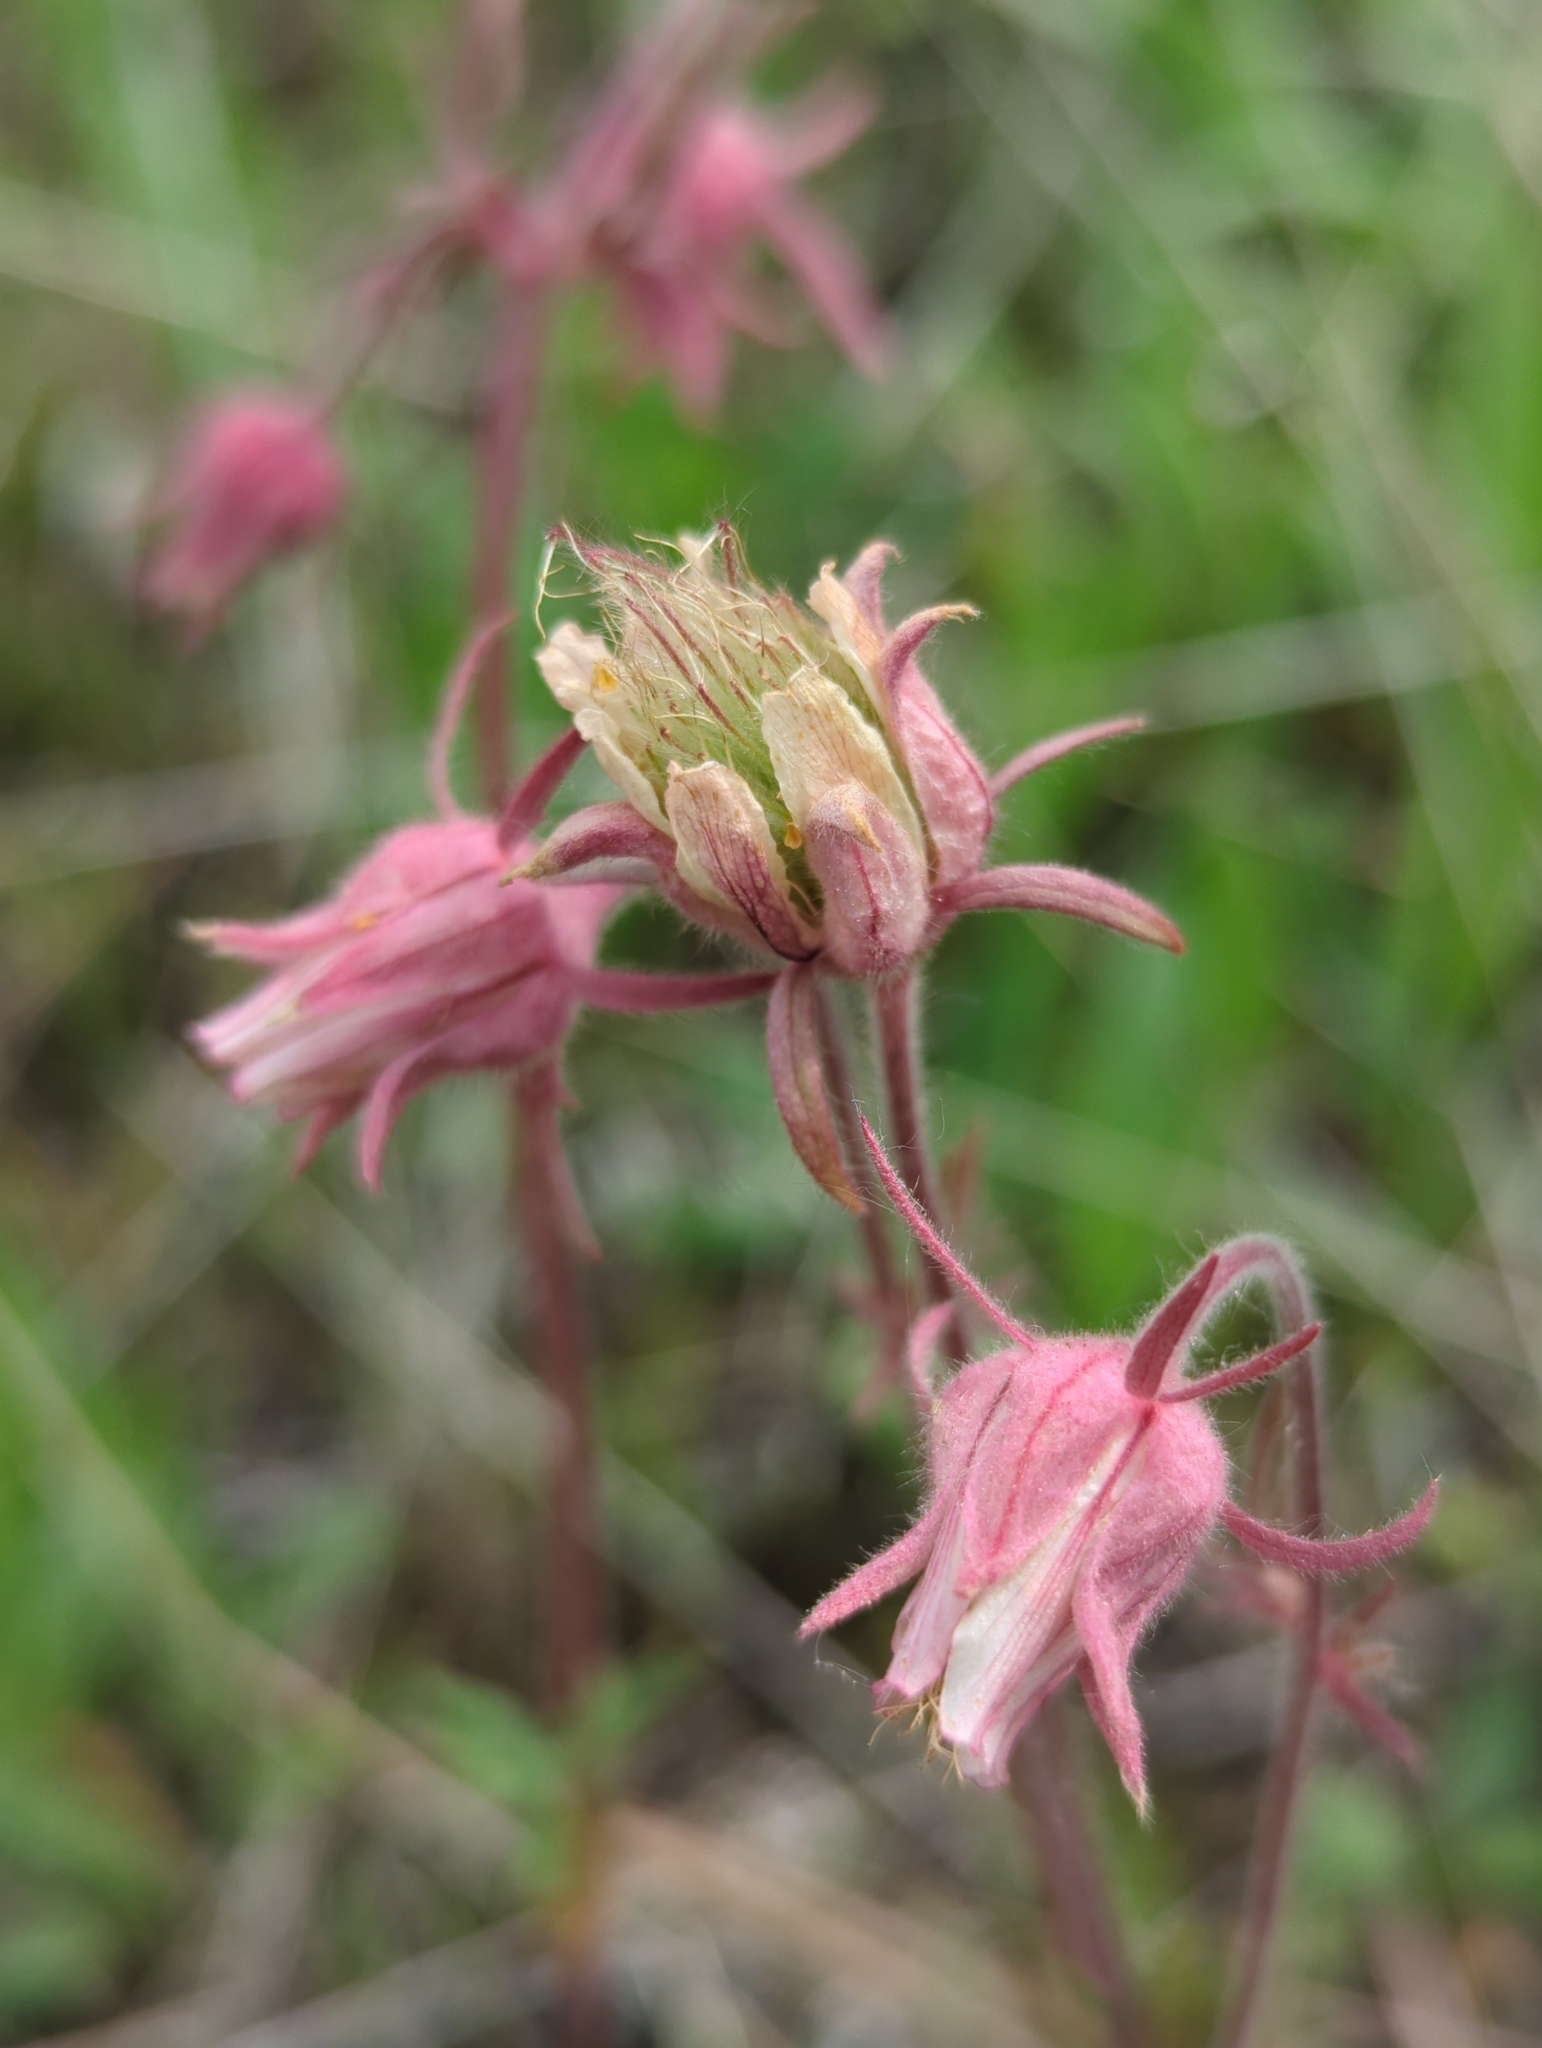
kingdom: Plantae
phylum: Tracheophyta
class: Magnoliopsida
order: Rosales
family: Rosaceae
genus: Geum
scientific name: Geum triflorum
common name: Old man's whiskers
